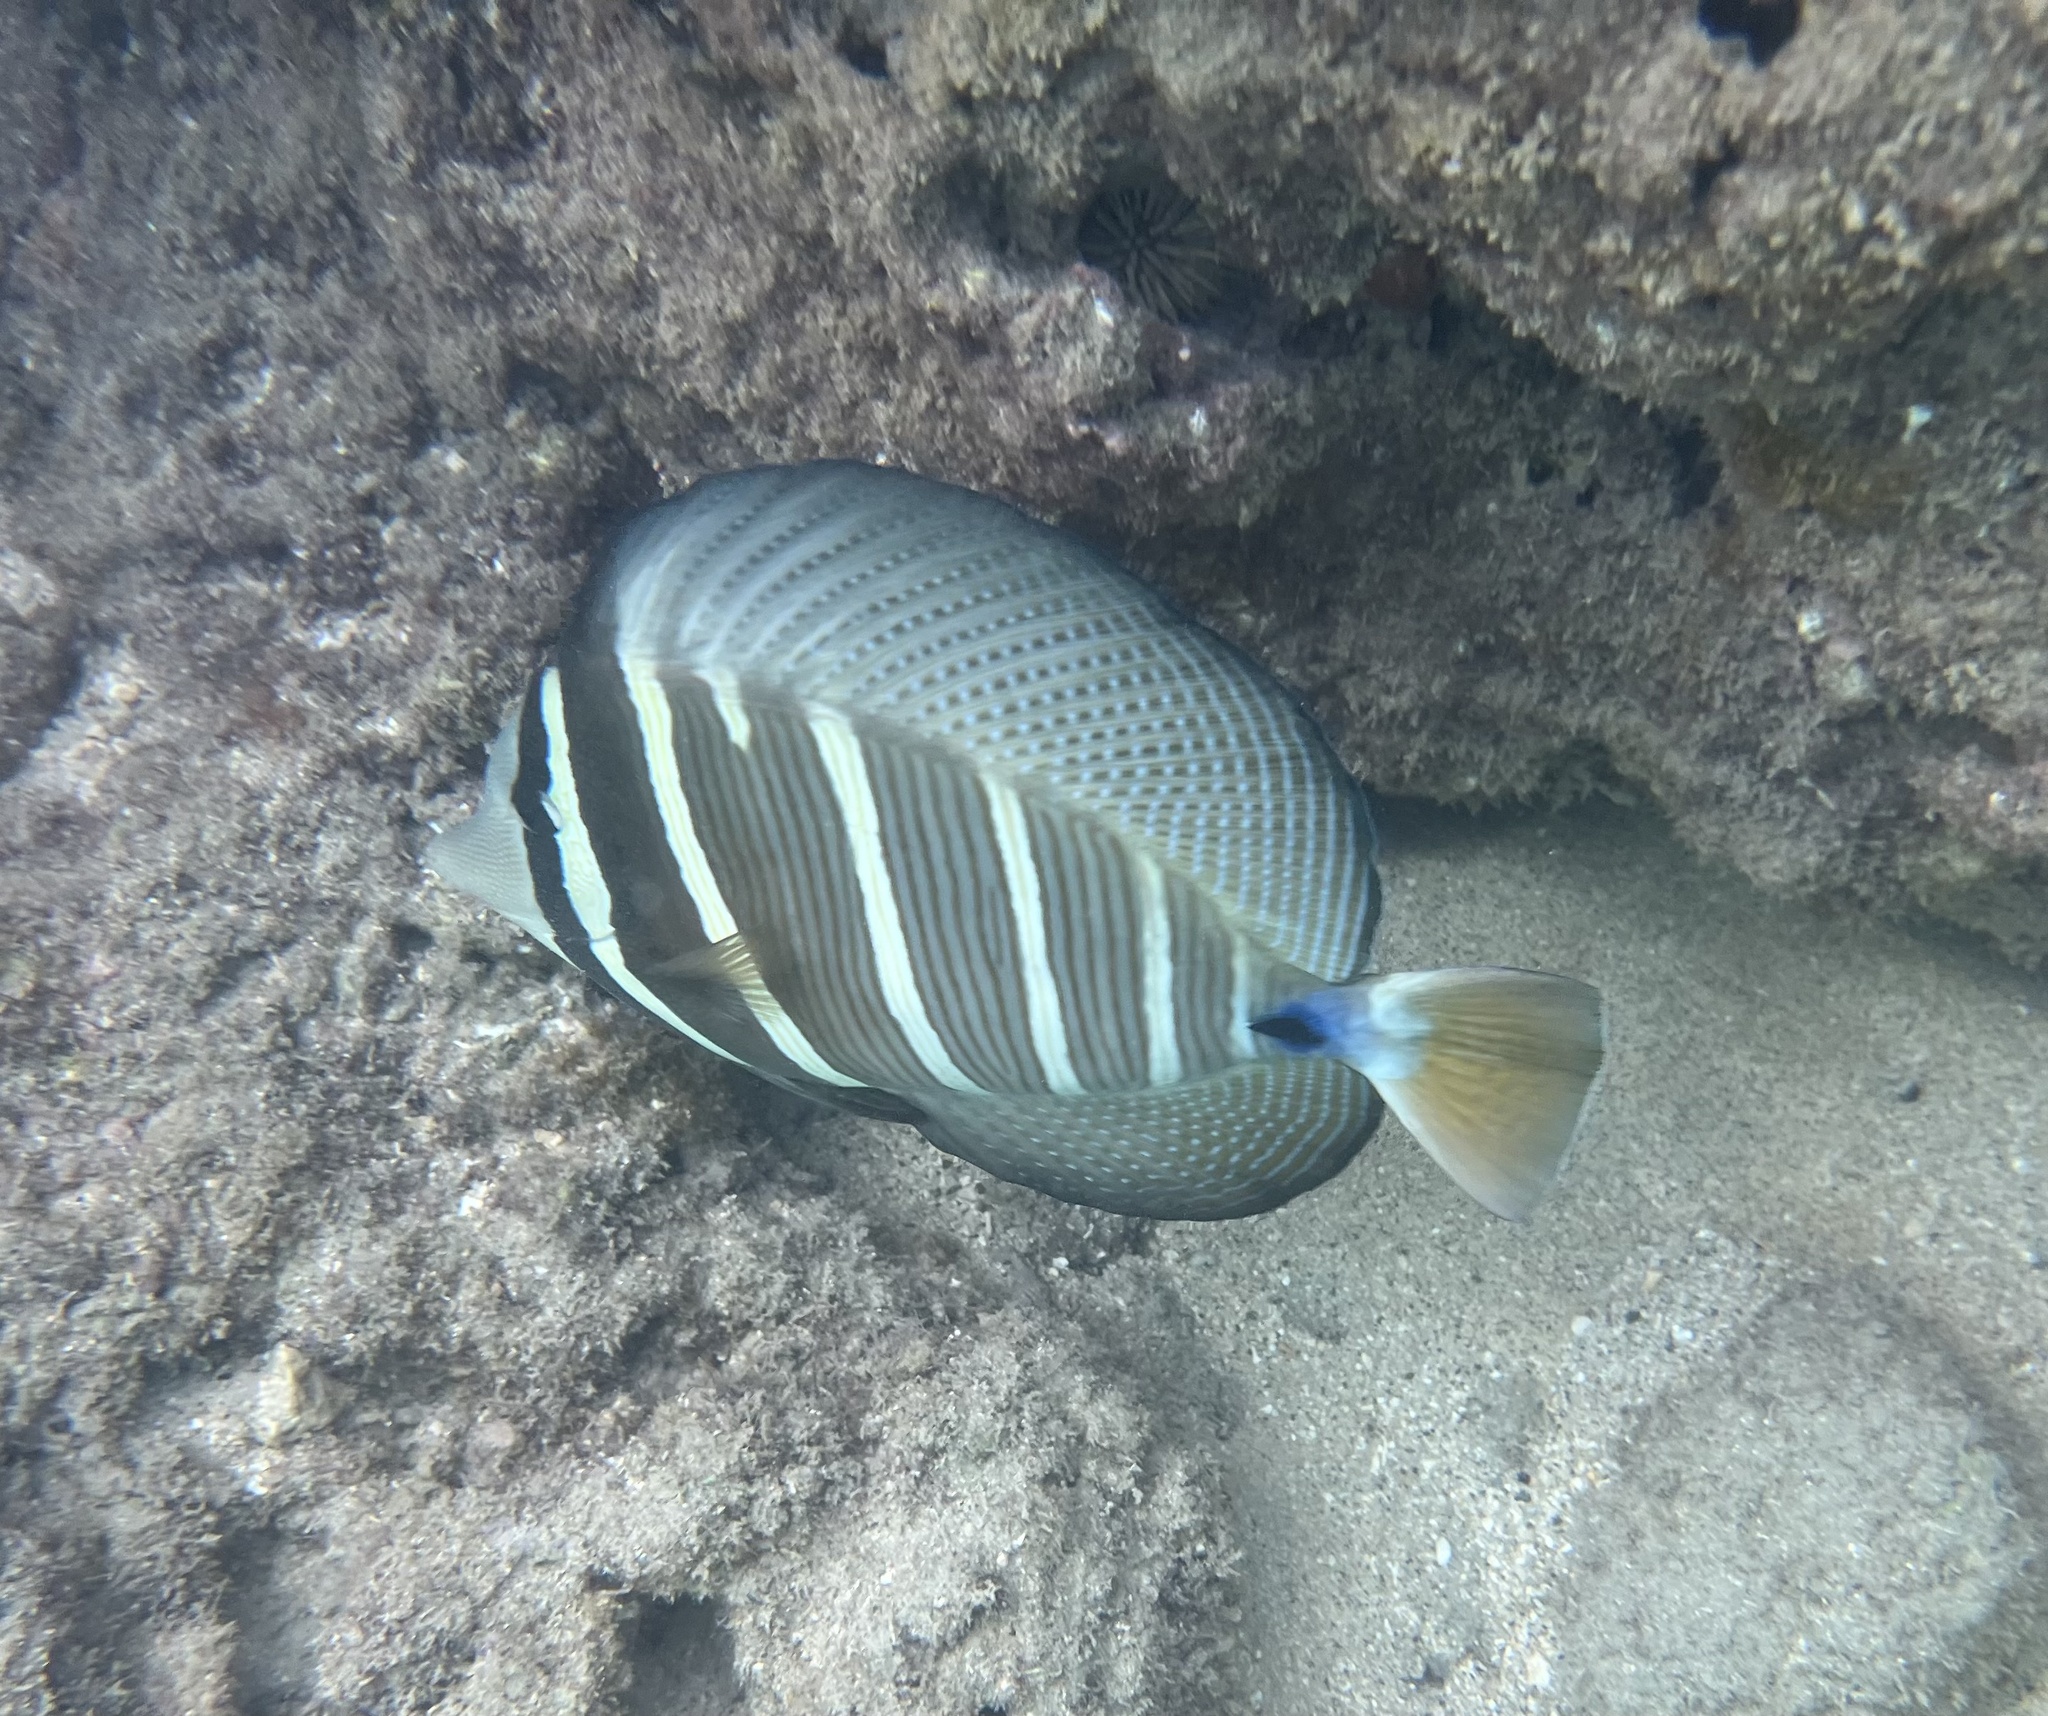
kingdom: Animalia
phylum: Chordata
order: Perciformes
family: Acanthuridae
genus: Zebrasoma
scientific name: Zebrasoma veliferum
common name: Sailfin surgeonfish
